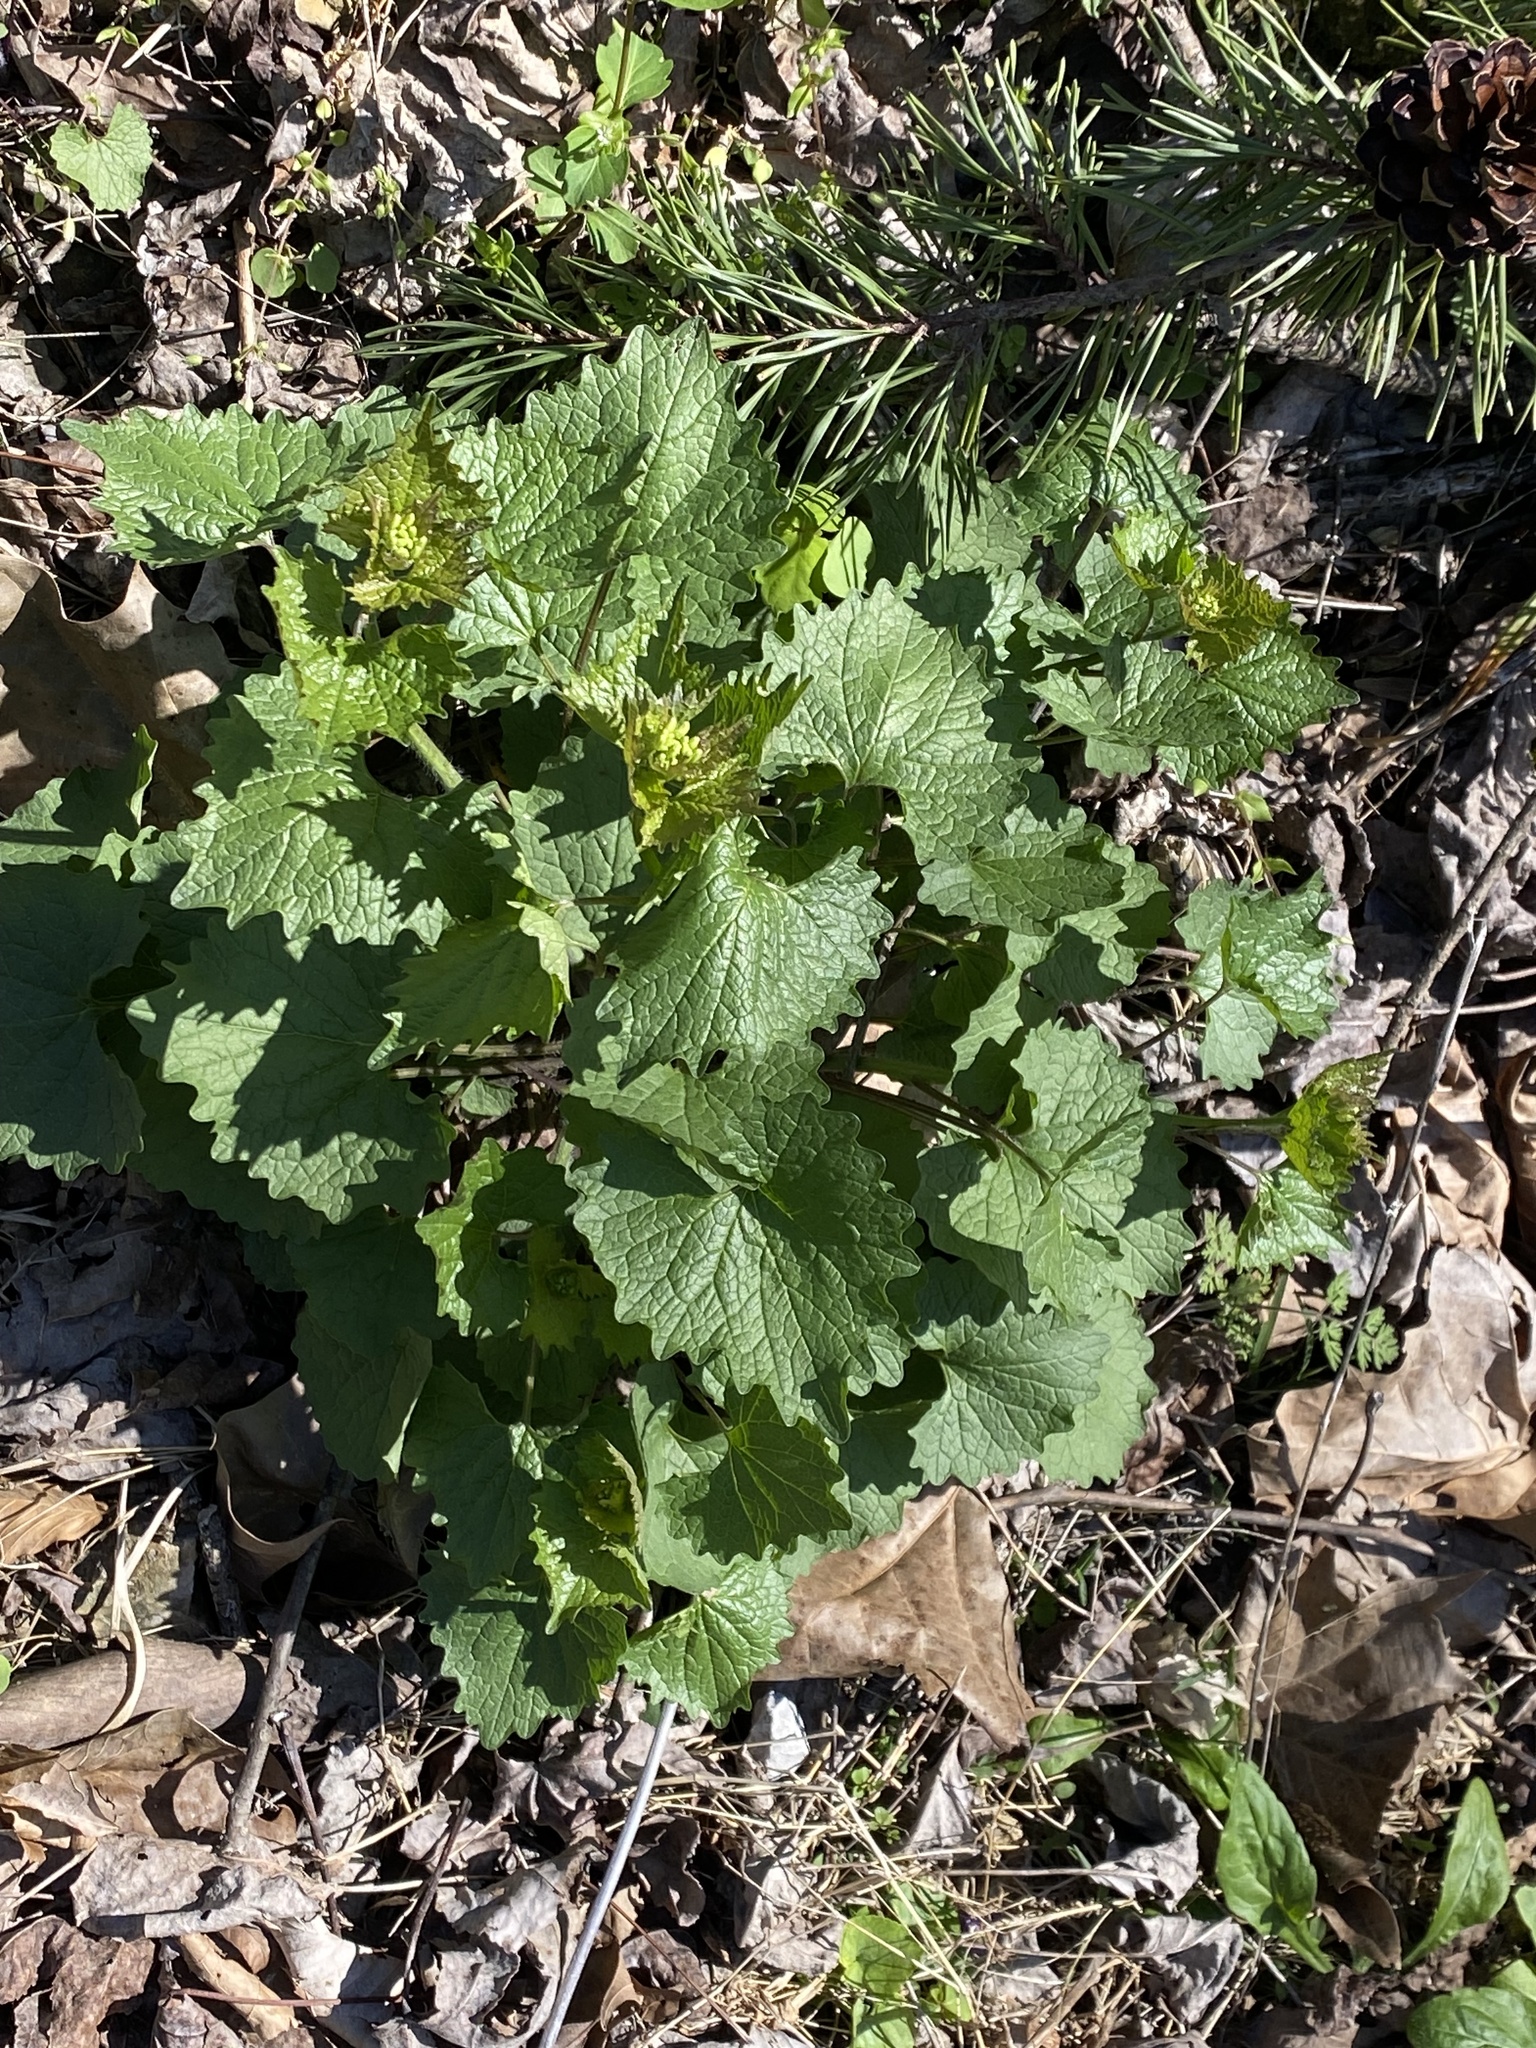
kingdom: Plantae
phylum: Tracheophyta
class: Magnoliopsida
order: Brassicales
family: Brassicaceae
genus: Alliaria
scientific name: Alliaria petiolata
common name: Garlic mustard
